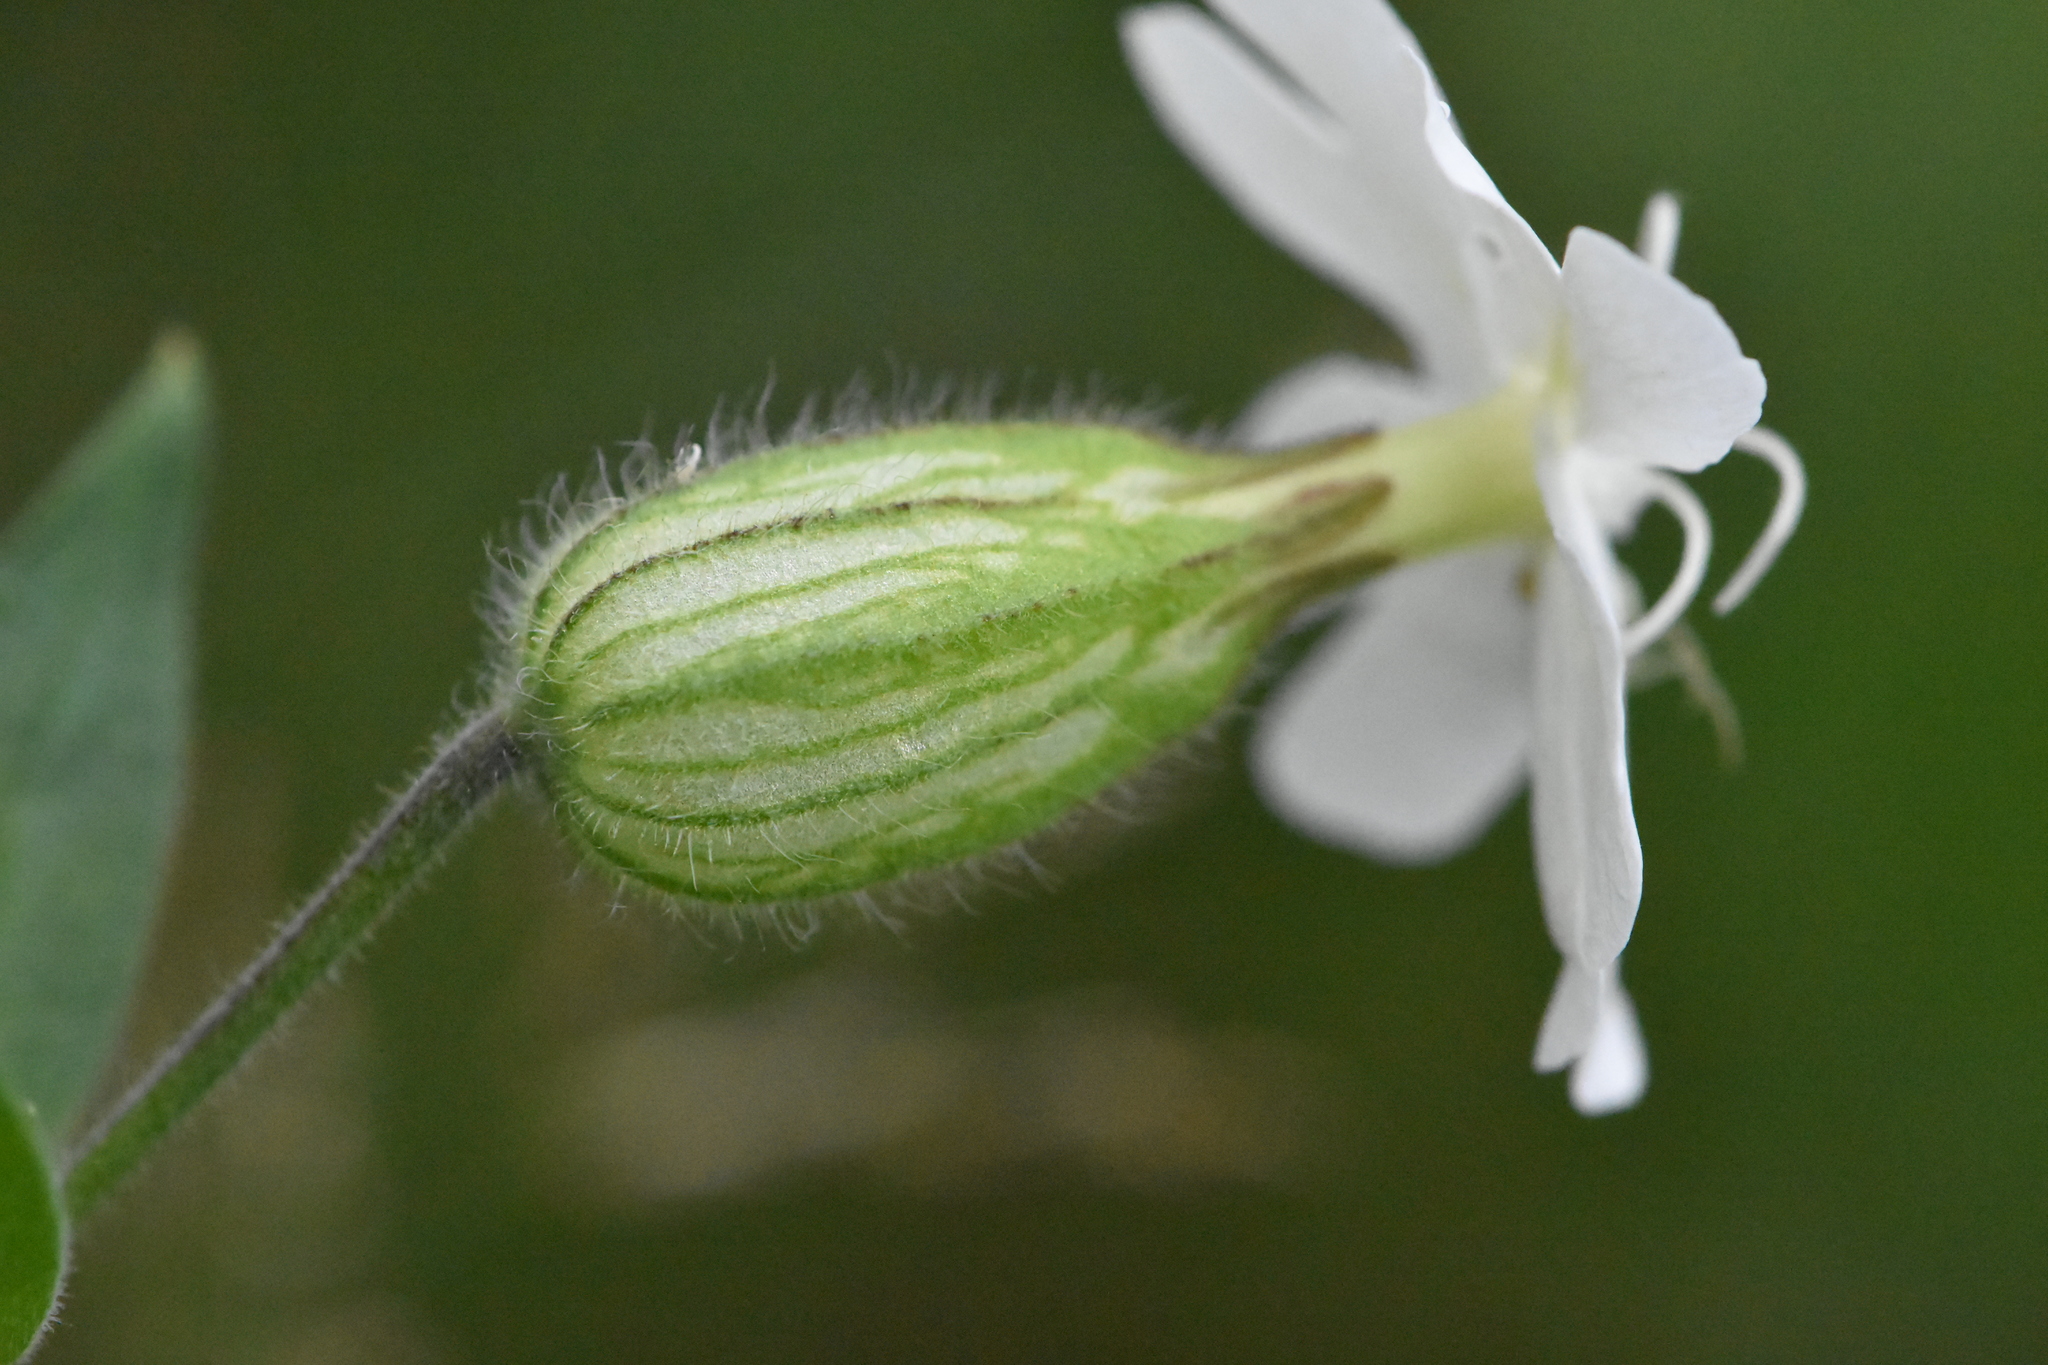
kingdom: Plantae
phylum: Tracheophyta
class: Magnoliopsida
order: Caryophyllales
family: Caryophyllaceae
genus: Silene
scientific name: Silene latifolia
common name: White campion
